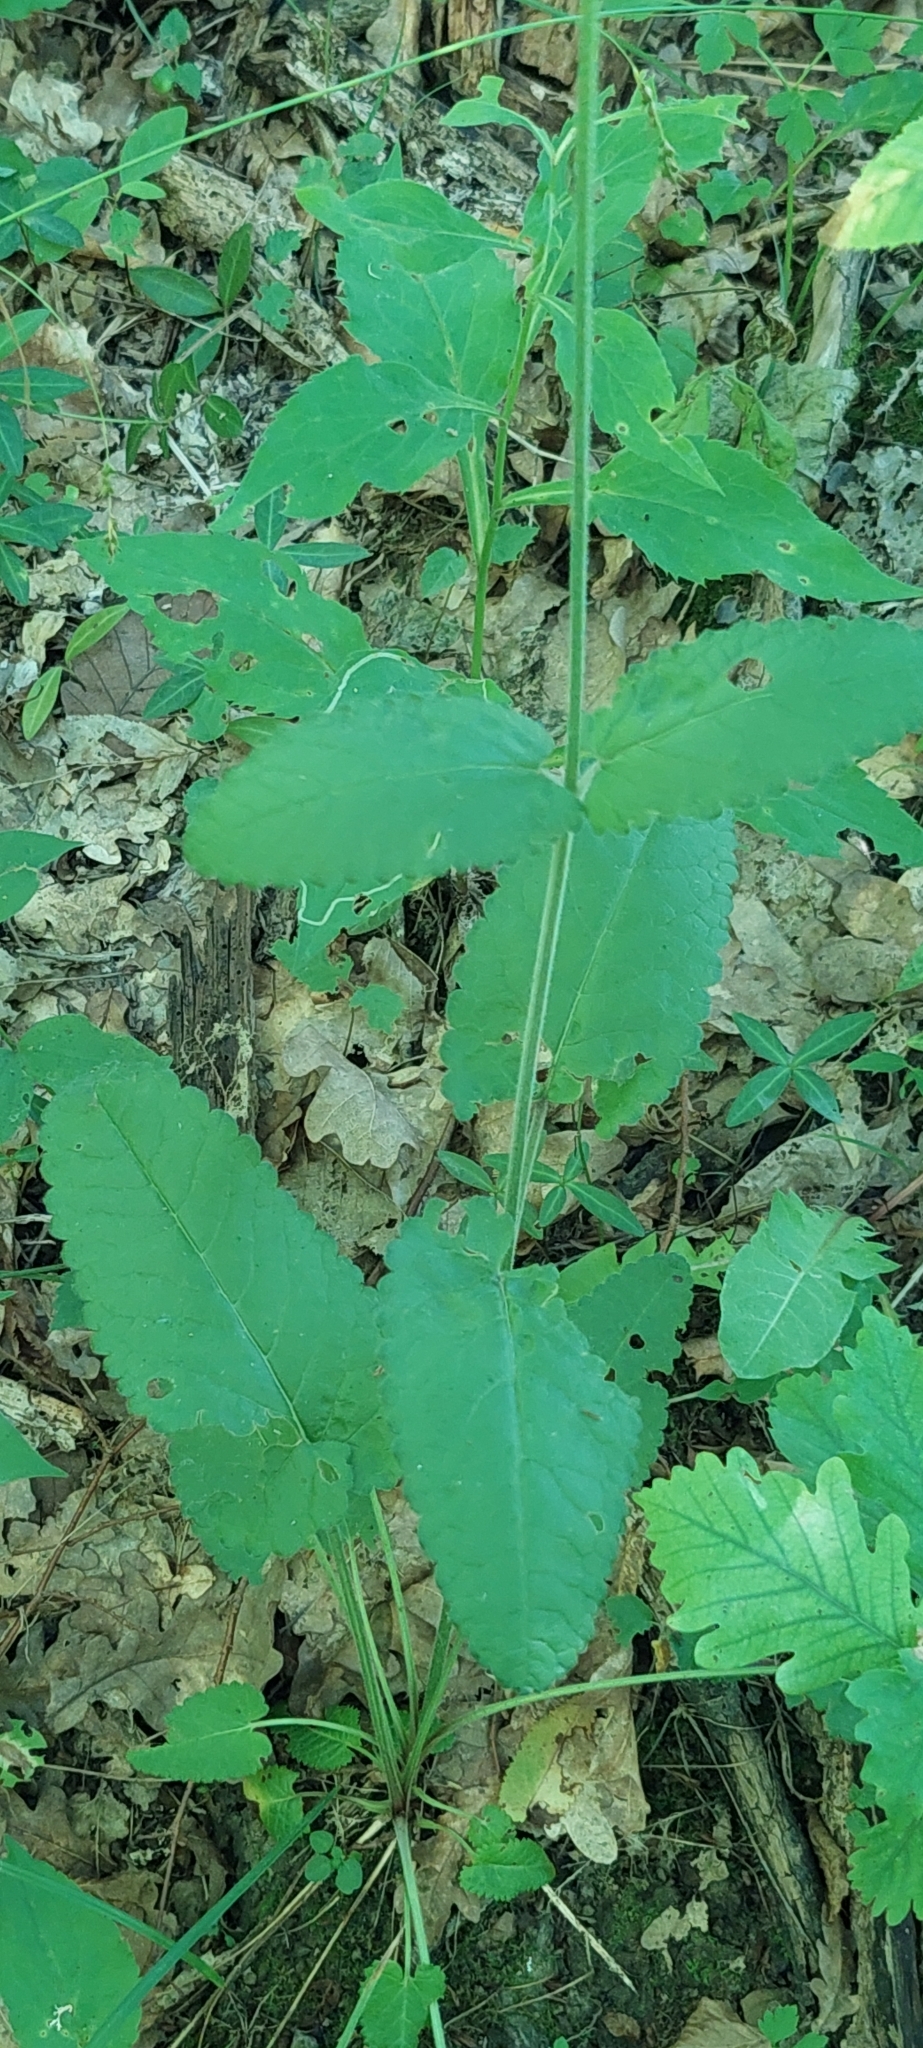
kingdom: Plantae
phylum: Tracheophyta
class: Magnoliopsida
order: Lamiales
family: Lamiaceae
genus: Betonica
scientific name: Betonica officinalis
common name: Bishop's-wort
